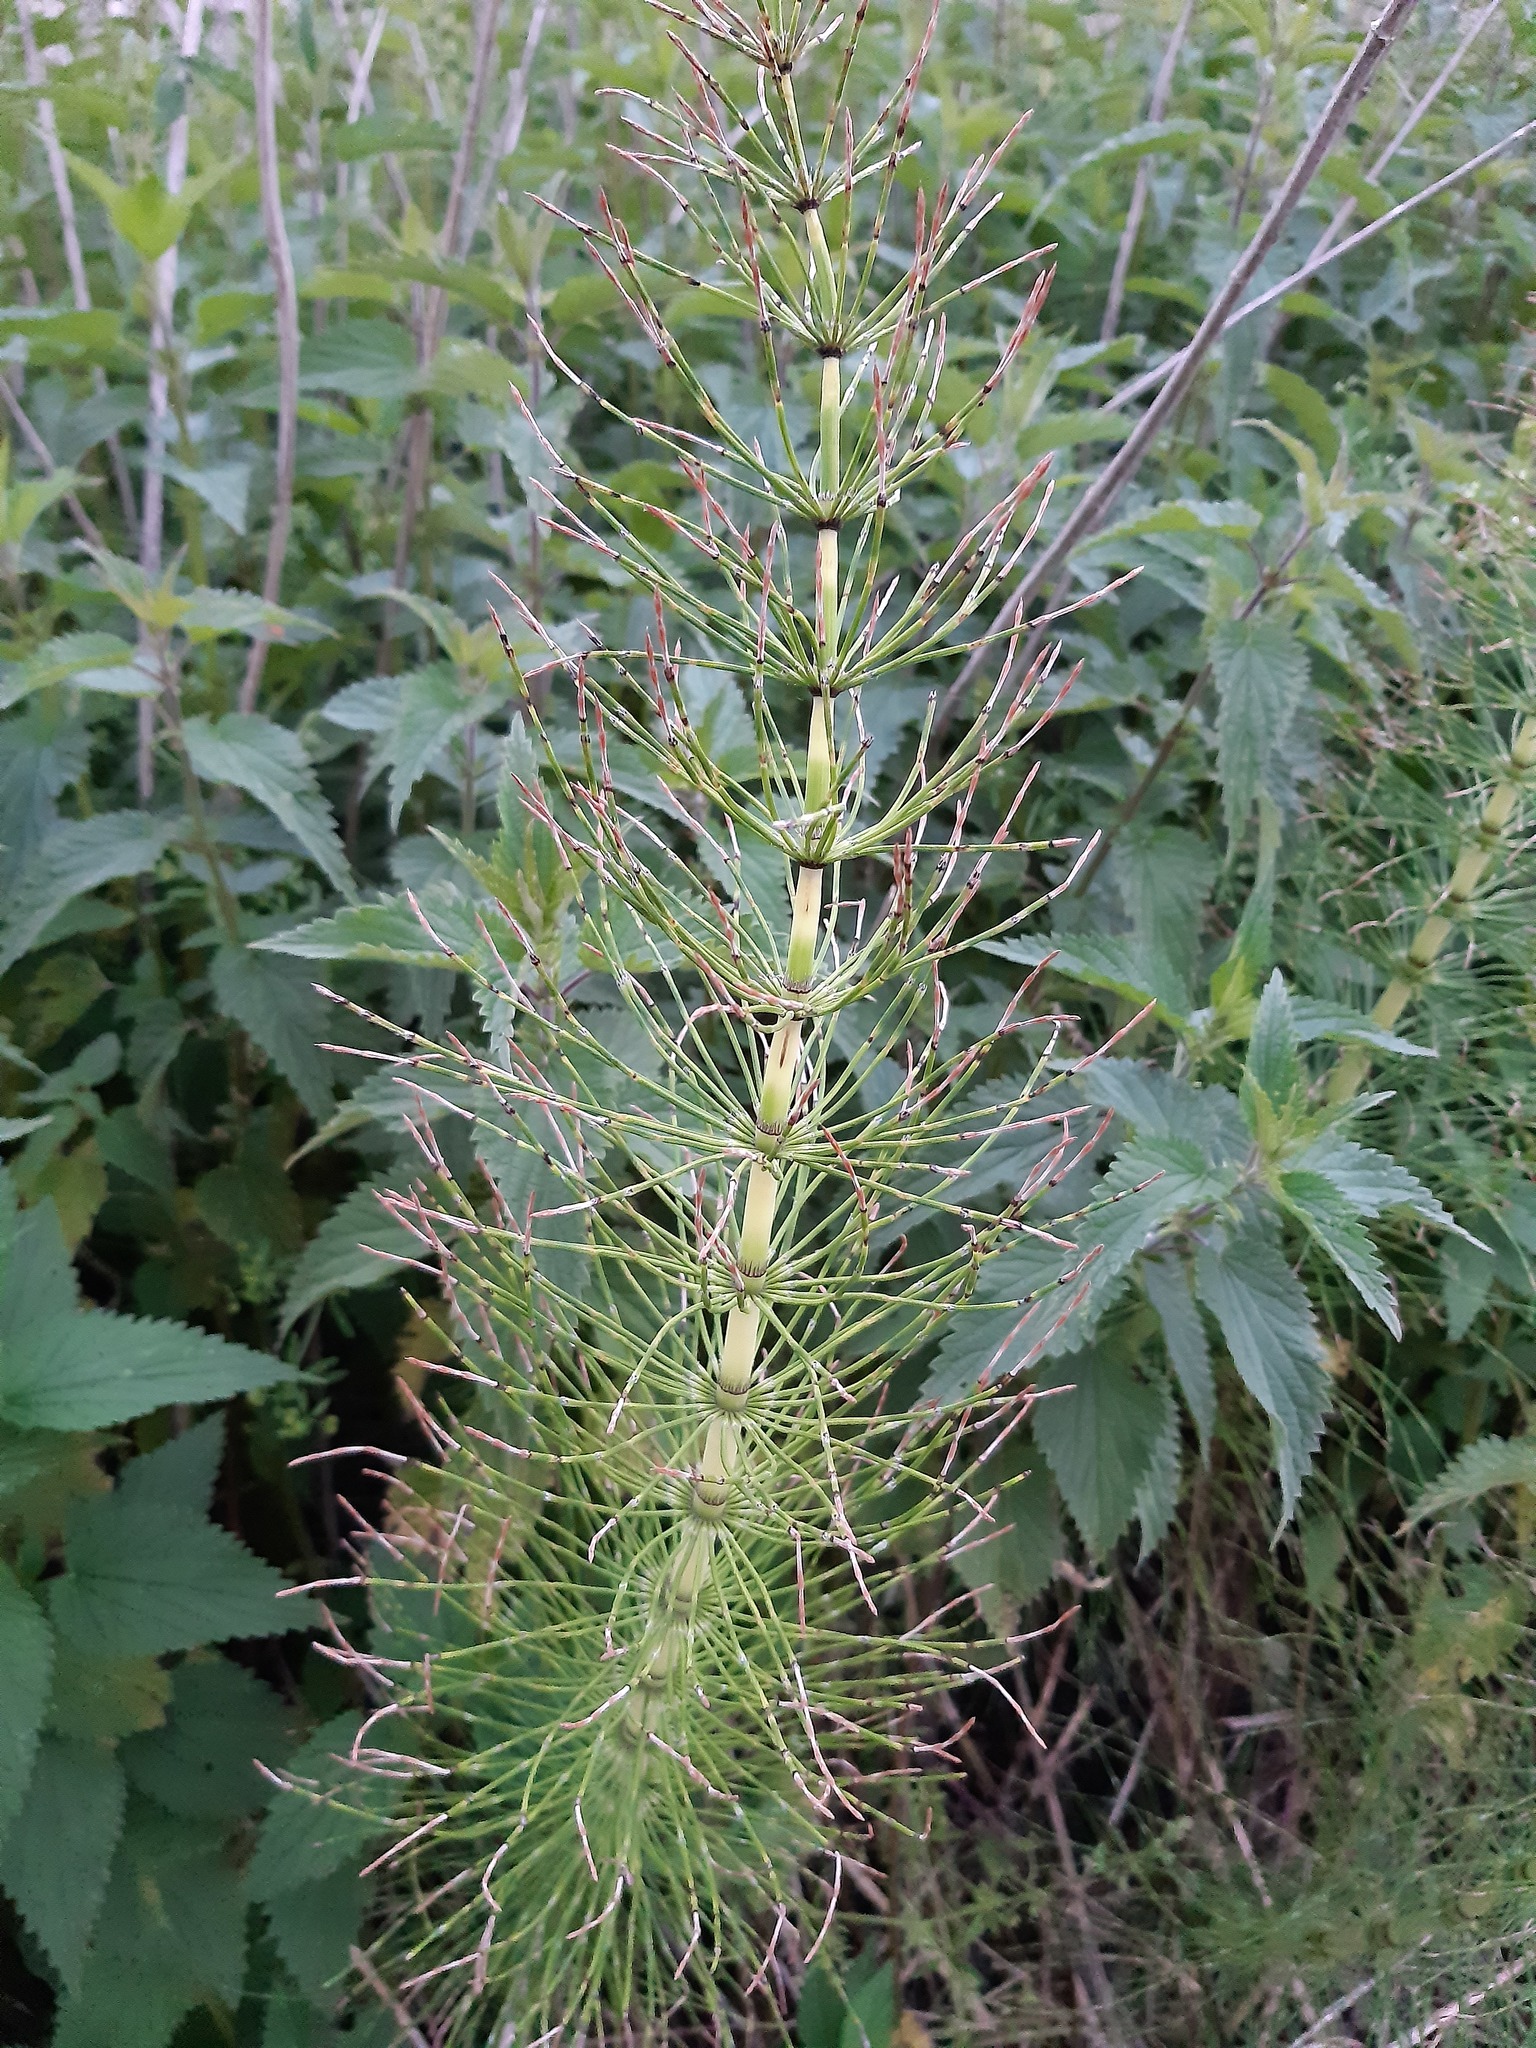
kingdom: Plantae
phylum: Tracheophyta
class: Polypodiopsida
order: Equisetales
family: Equisetaceae
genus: Equisetum
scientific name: Equisetum telmateia
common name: Great horsetail
